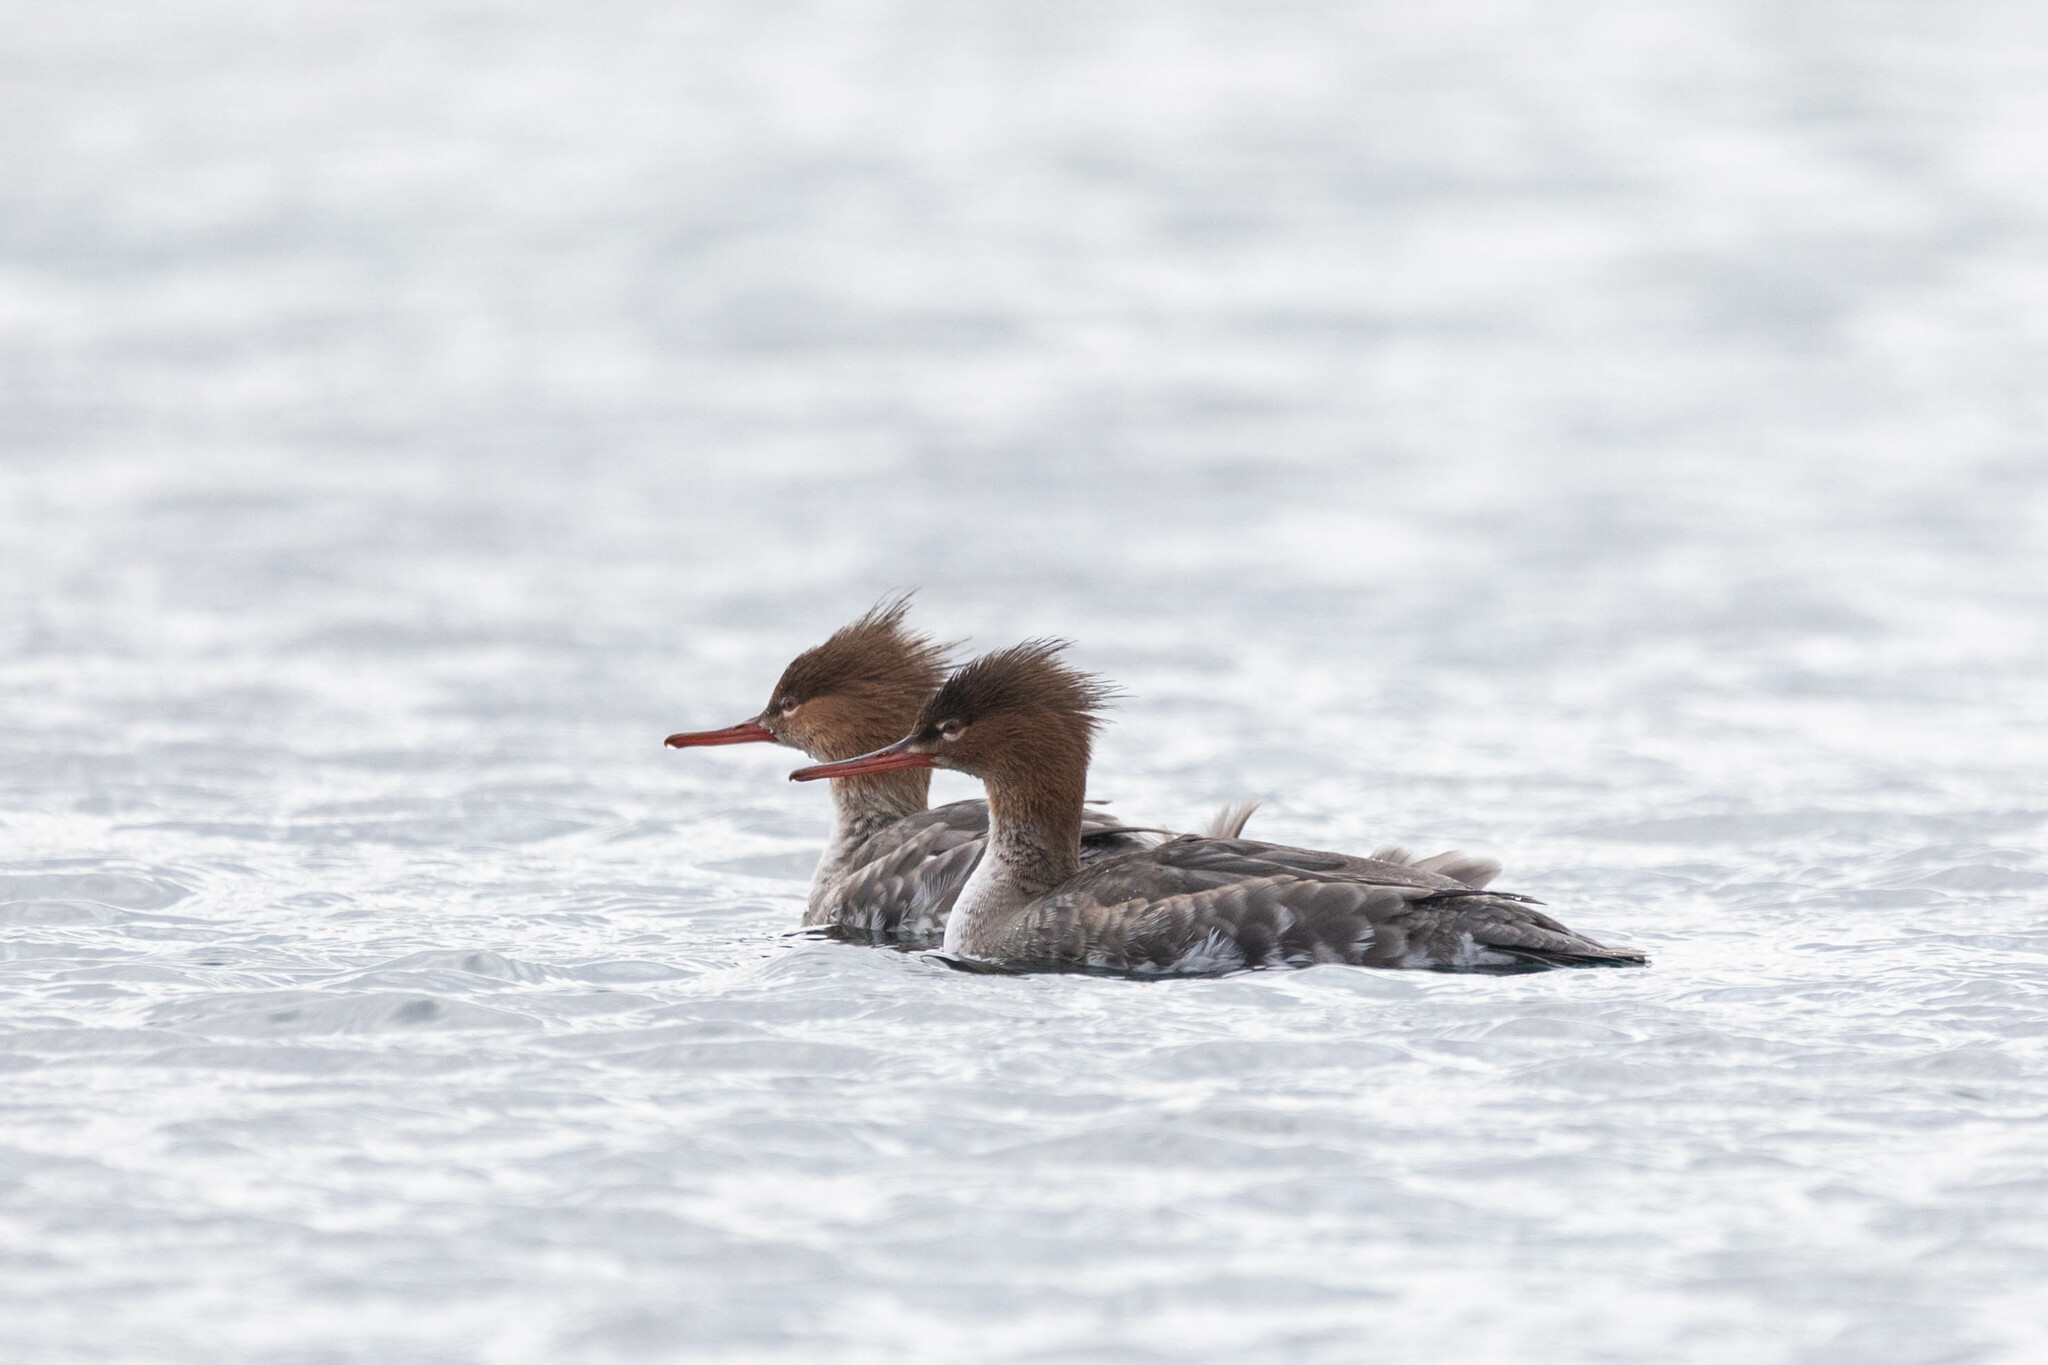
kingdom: Animalia
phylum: Chordata
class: Aves
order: Anseriformes
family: Anatidae
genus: Mergus
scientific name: Mergus serrator
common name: Red-breasted merganser
